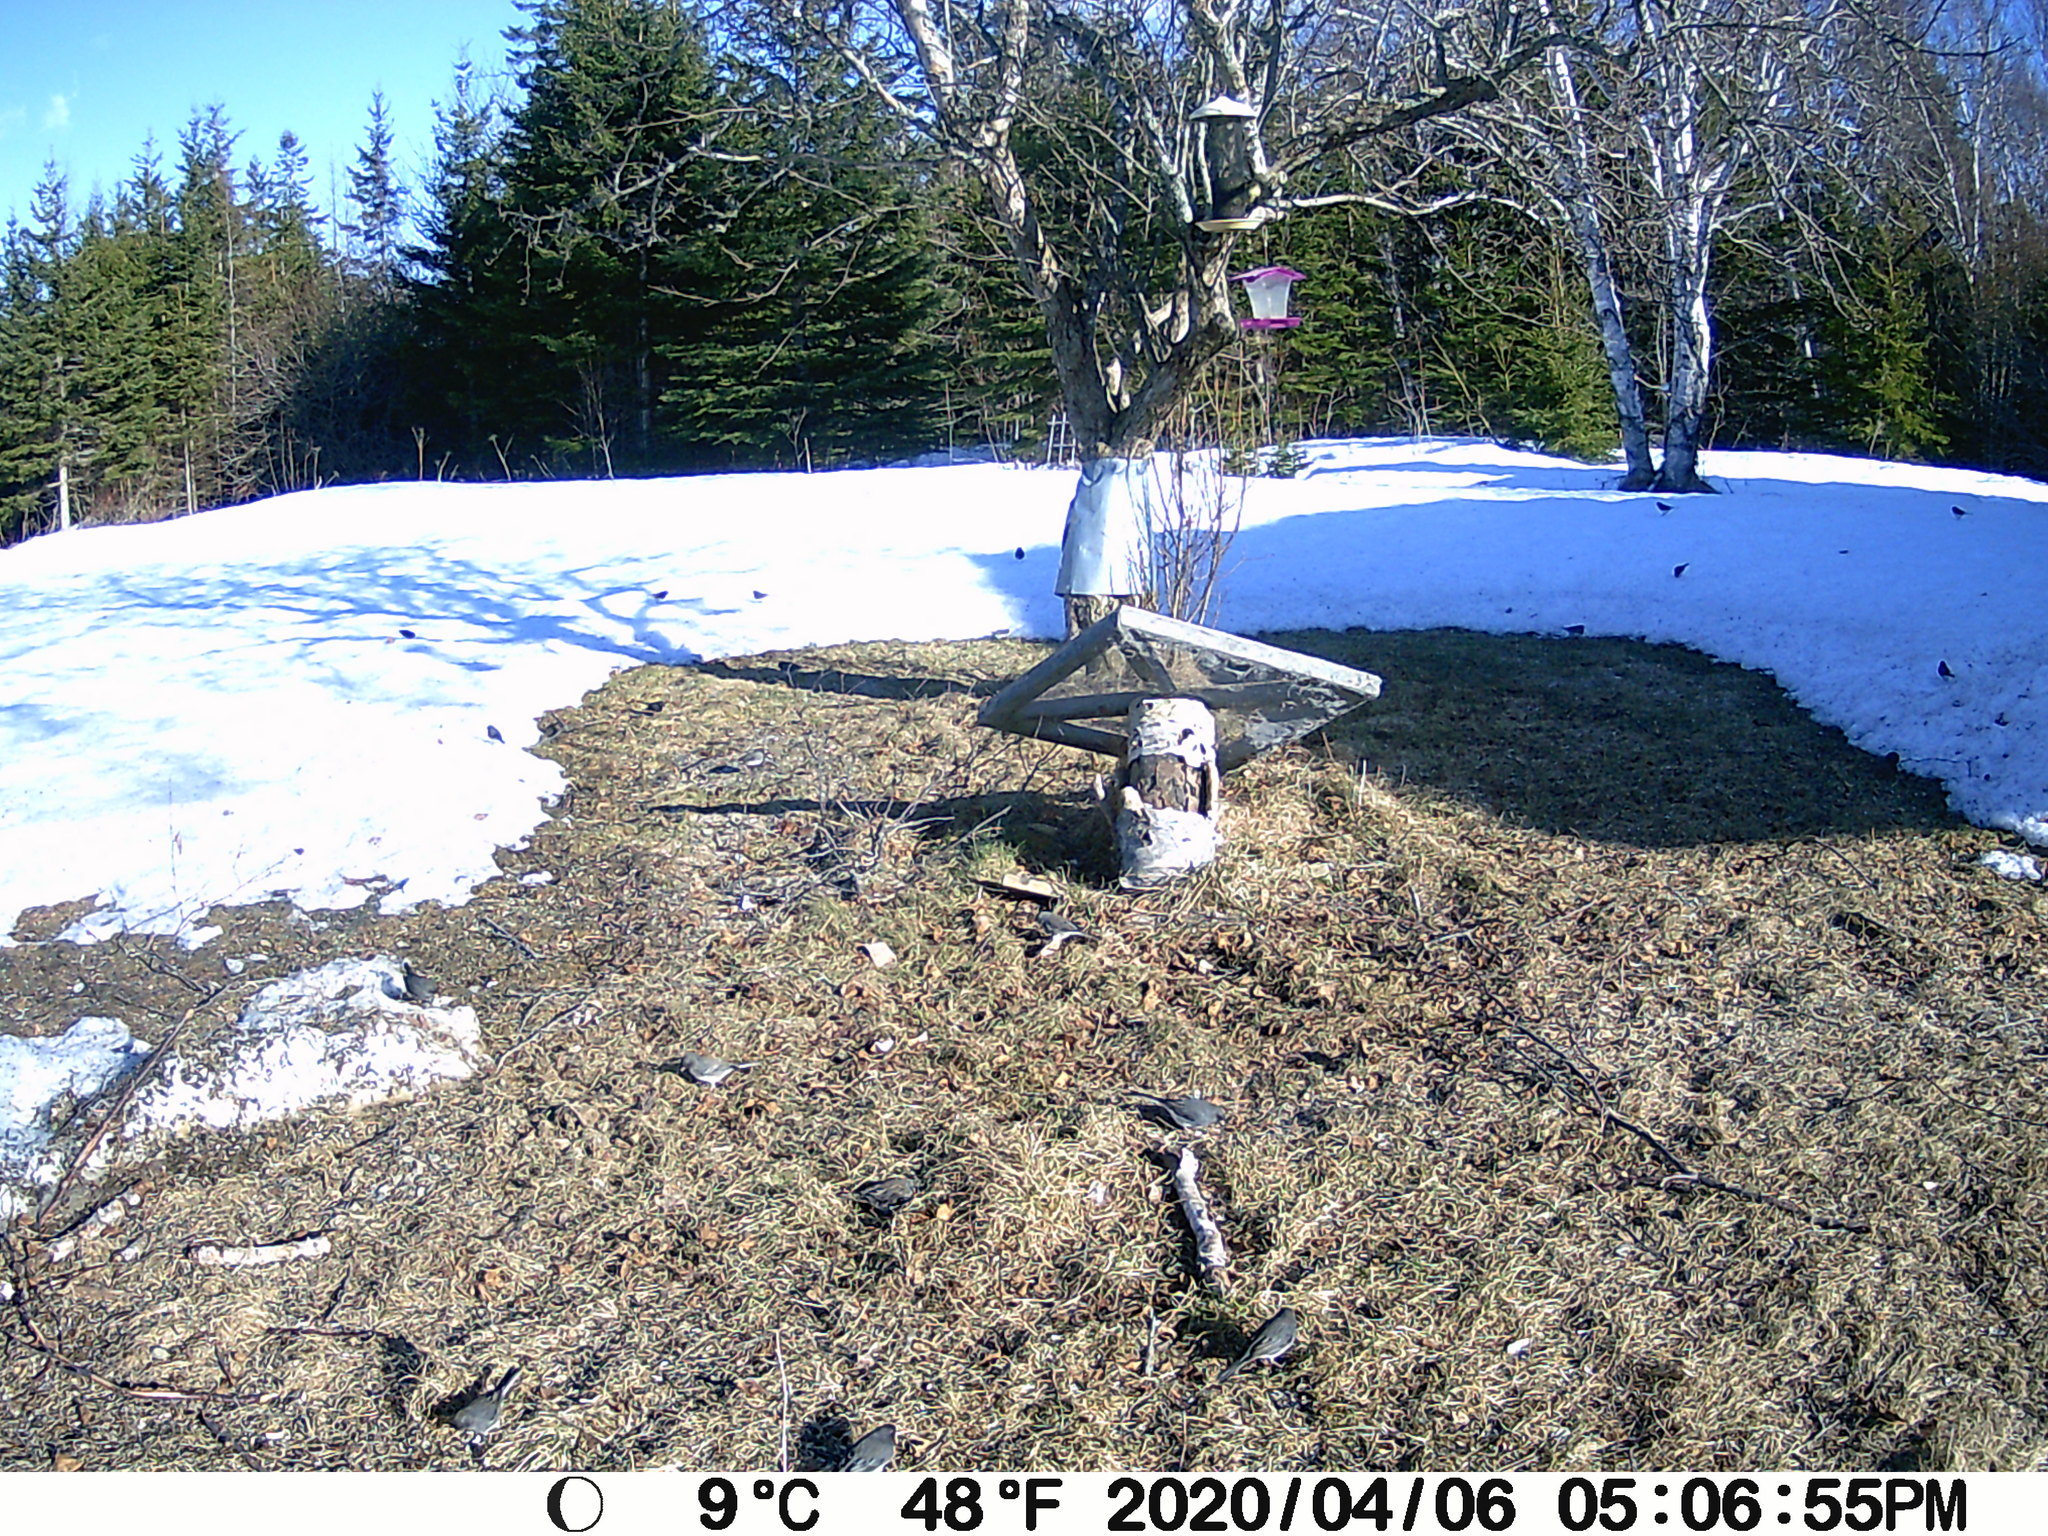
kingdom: Animalia
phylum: Chordata
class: Aves
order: Passeriformes
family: Passerellidae
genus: Junco
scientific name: Junco hyemalis
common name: Dark-eyed junco
